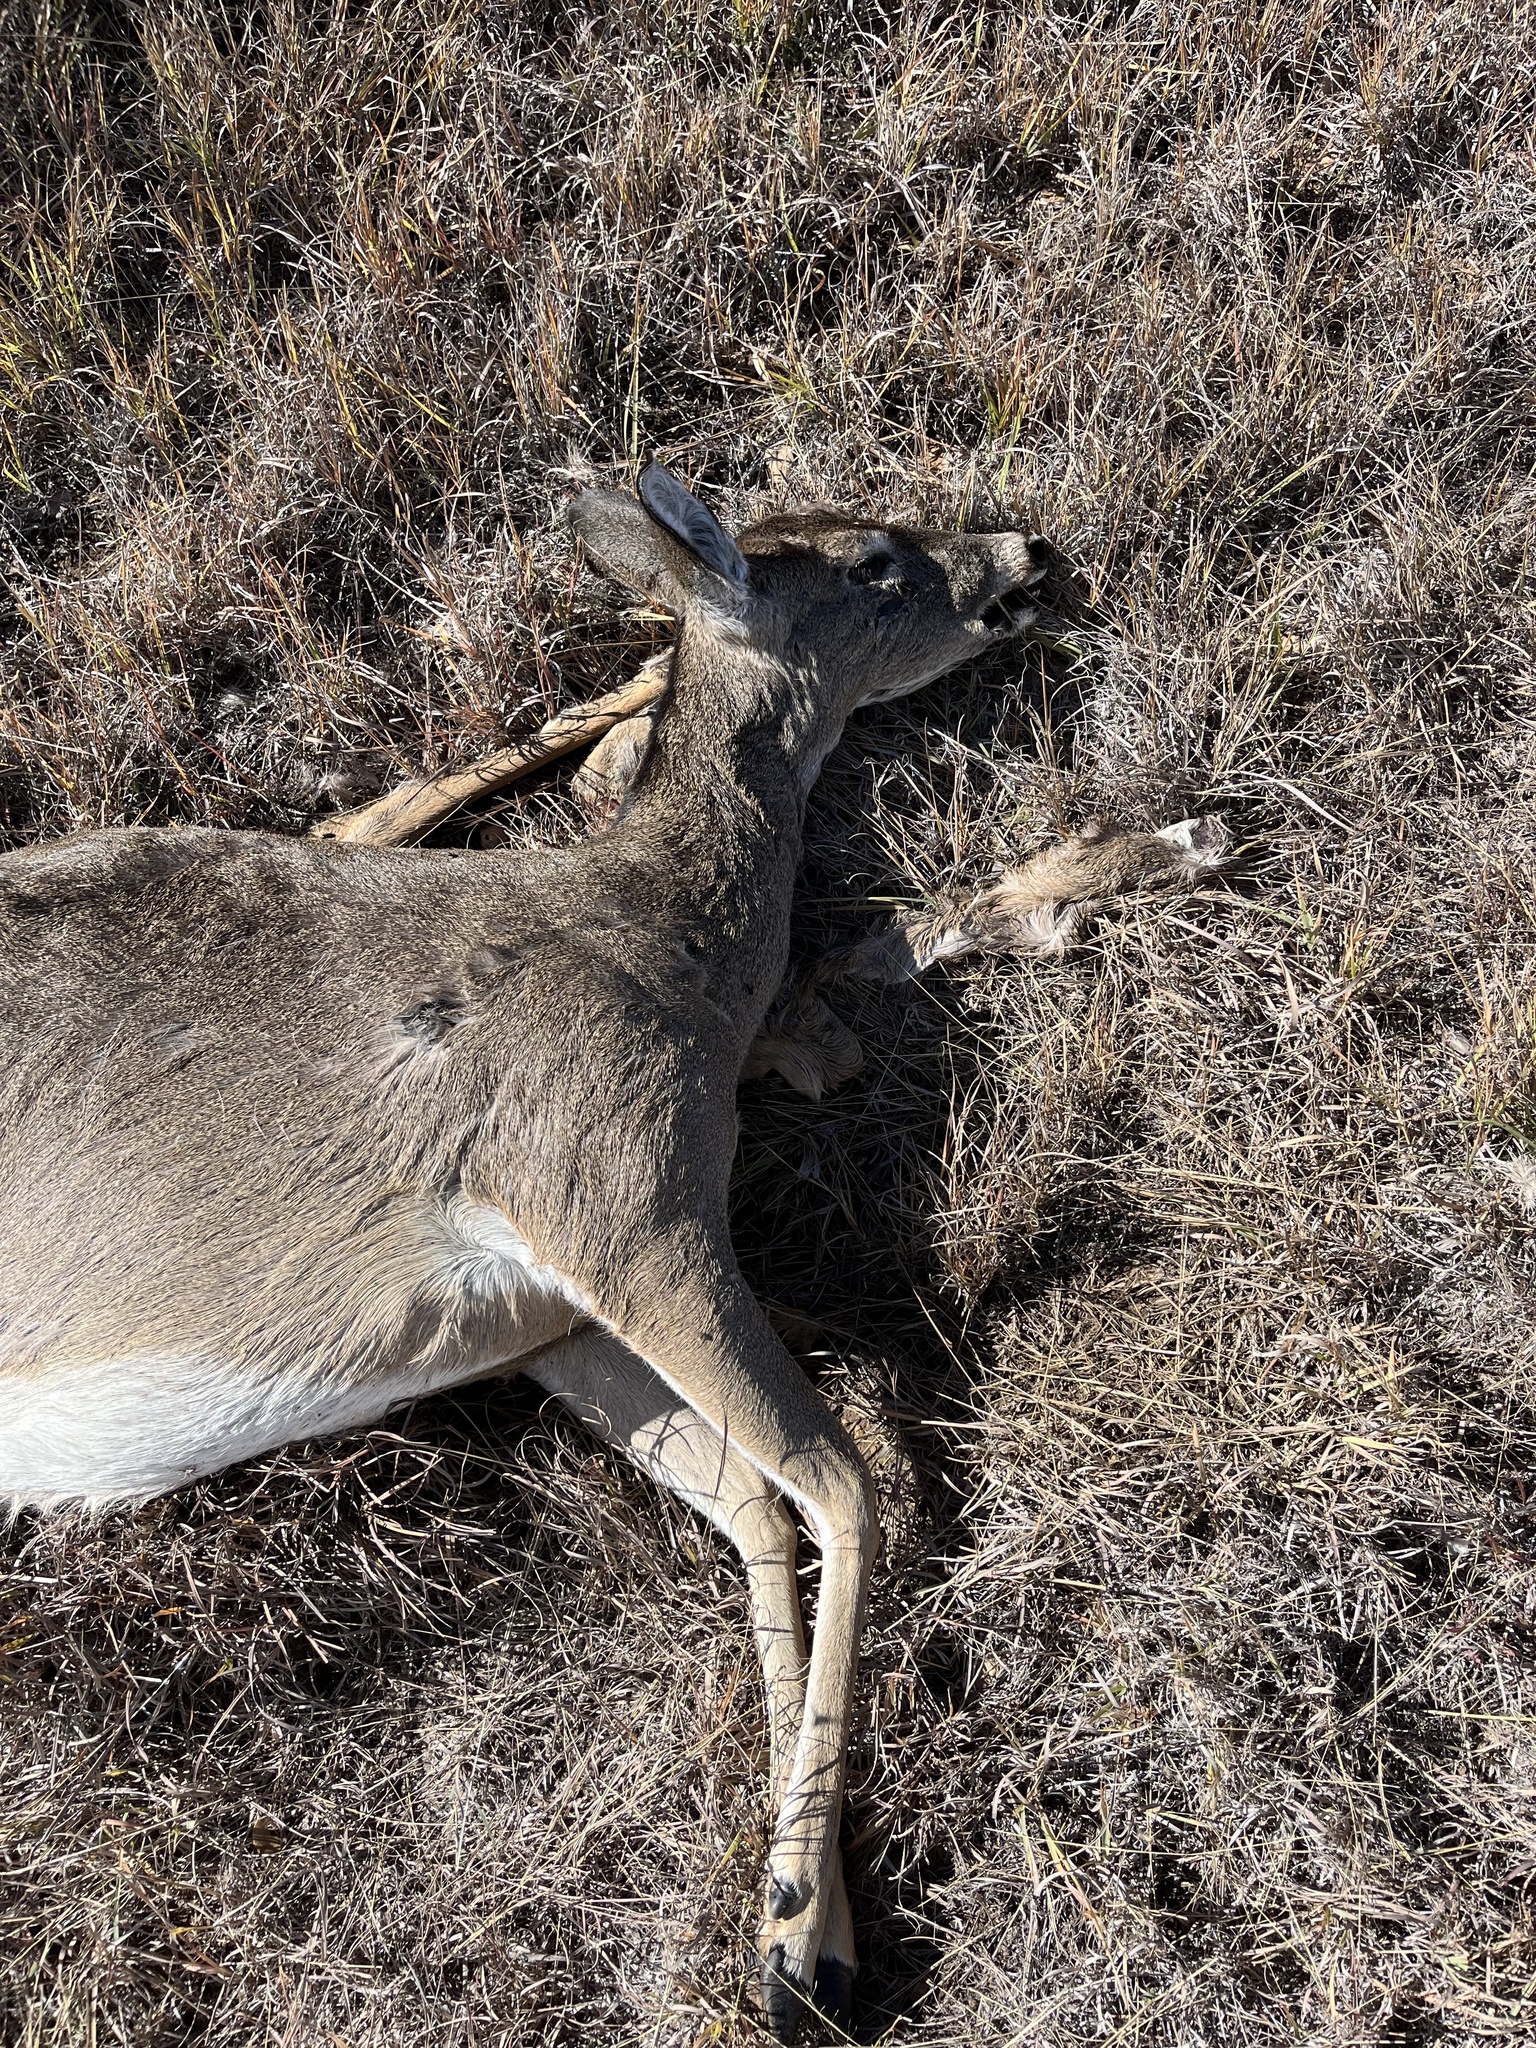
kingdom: Animalia
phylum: Chordata
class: Mammalia
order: Artiodactyla
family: Cervidae
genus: Odocoileus
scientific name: Odocoileus virginianus
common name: White-tailed deer
